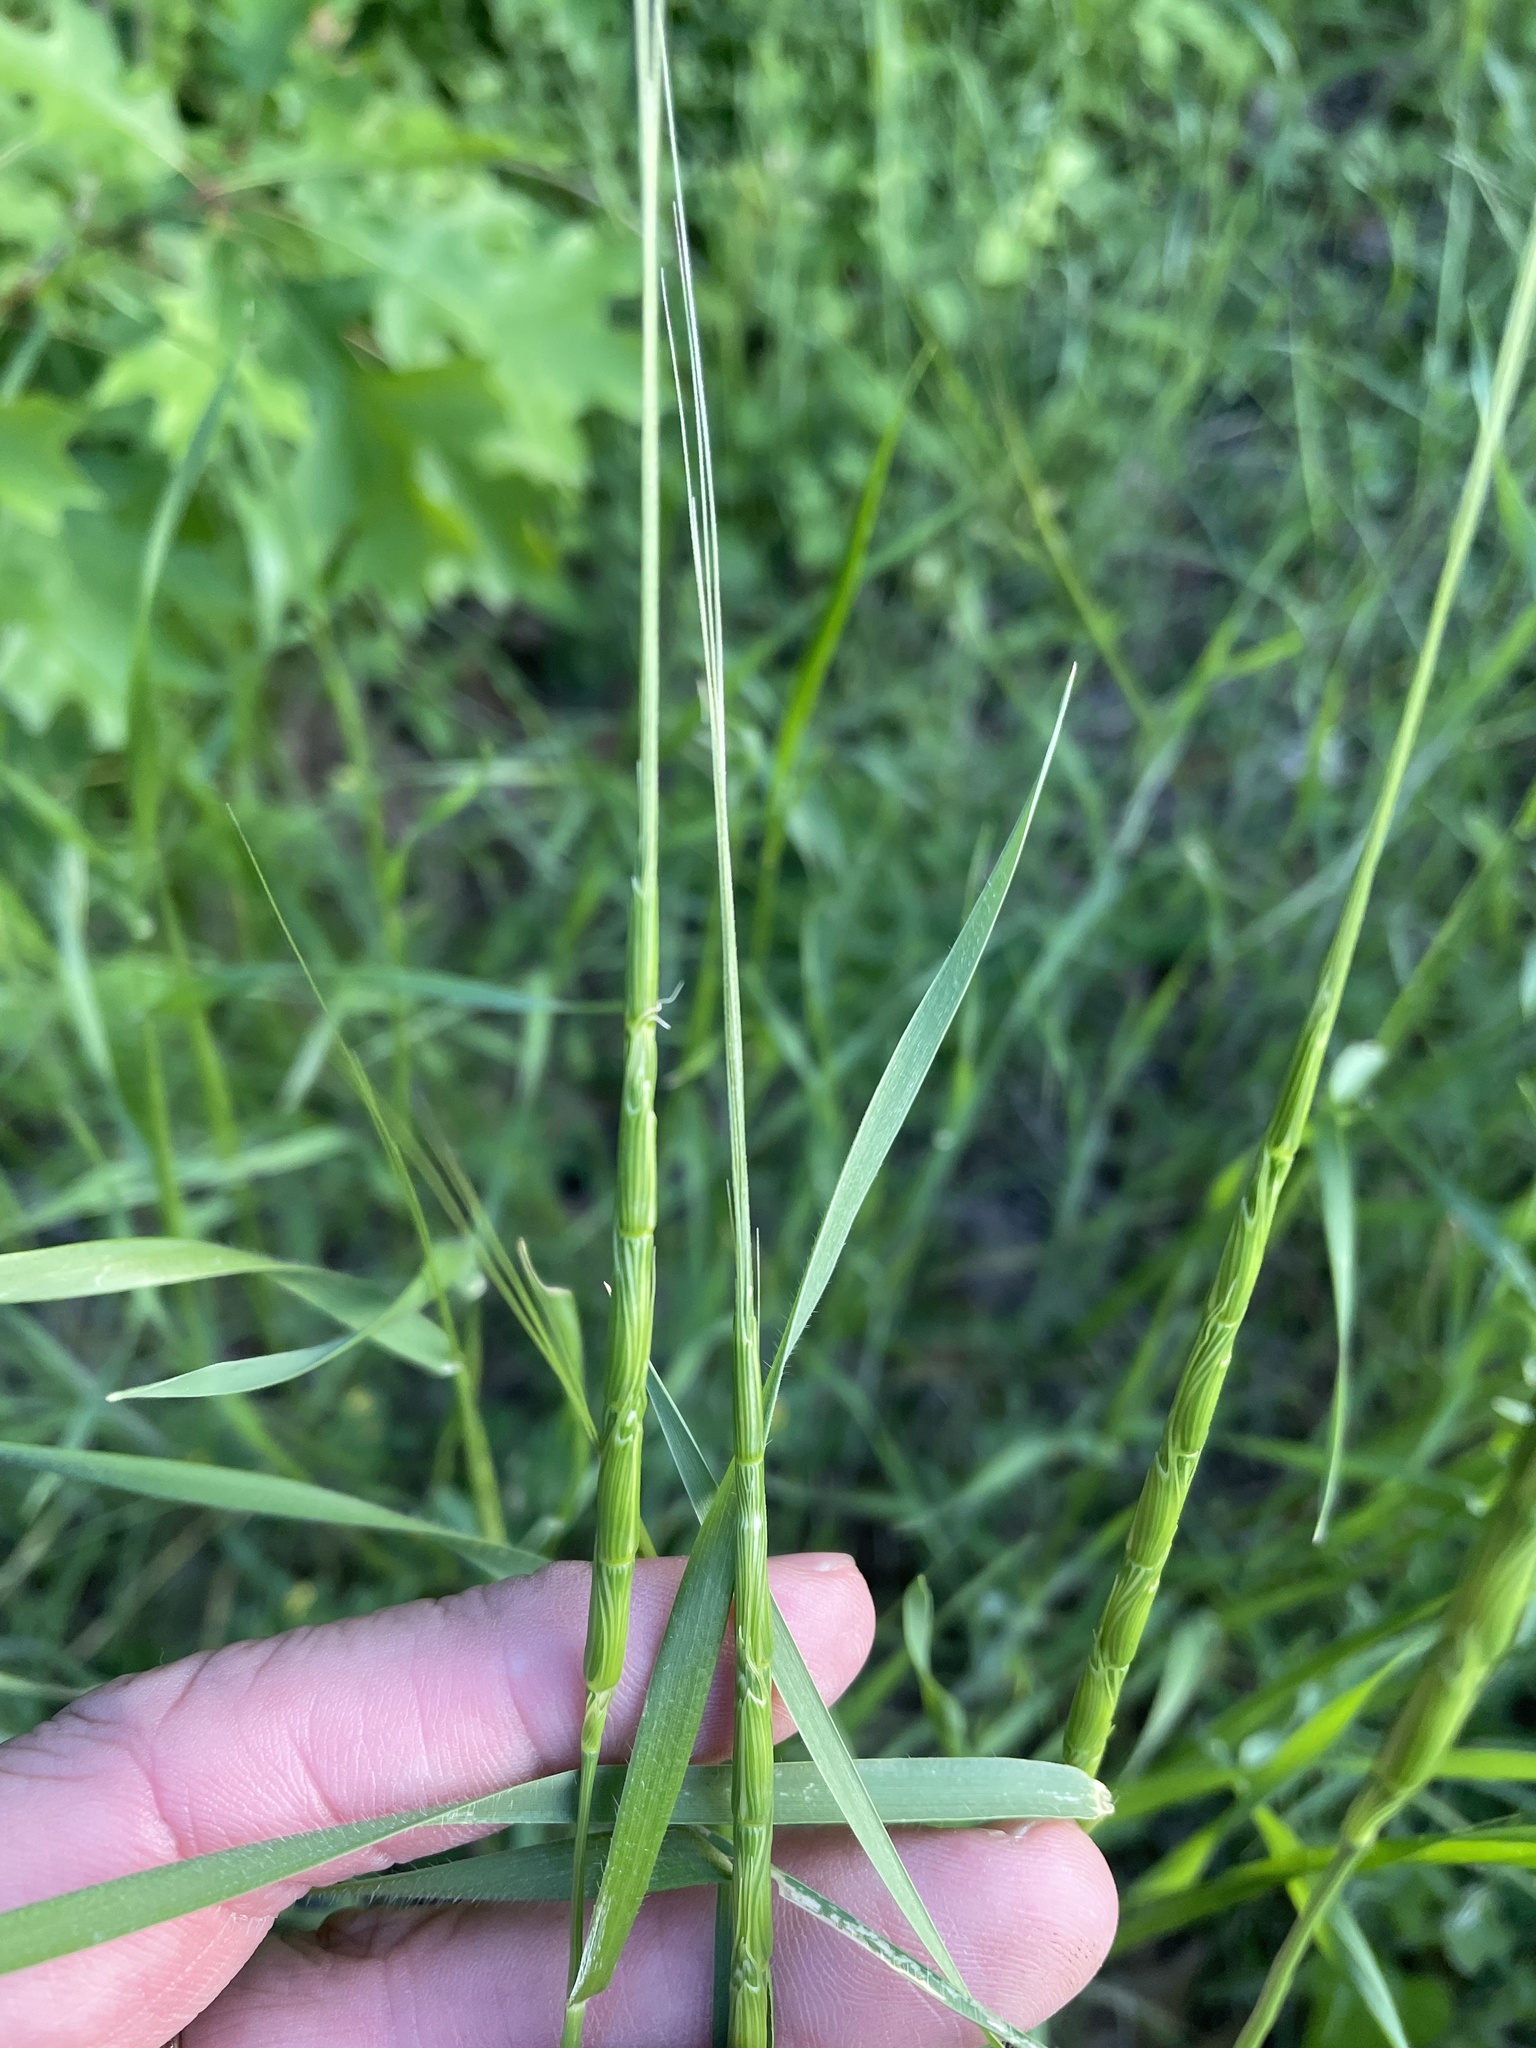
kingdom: Plantae
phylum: Tracheophyta
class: Liliopsida
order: Poales
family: Poaceae
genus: Aegilops
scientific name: Aegilops cylindrica
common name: Jointed goatgrass
